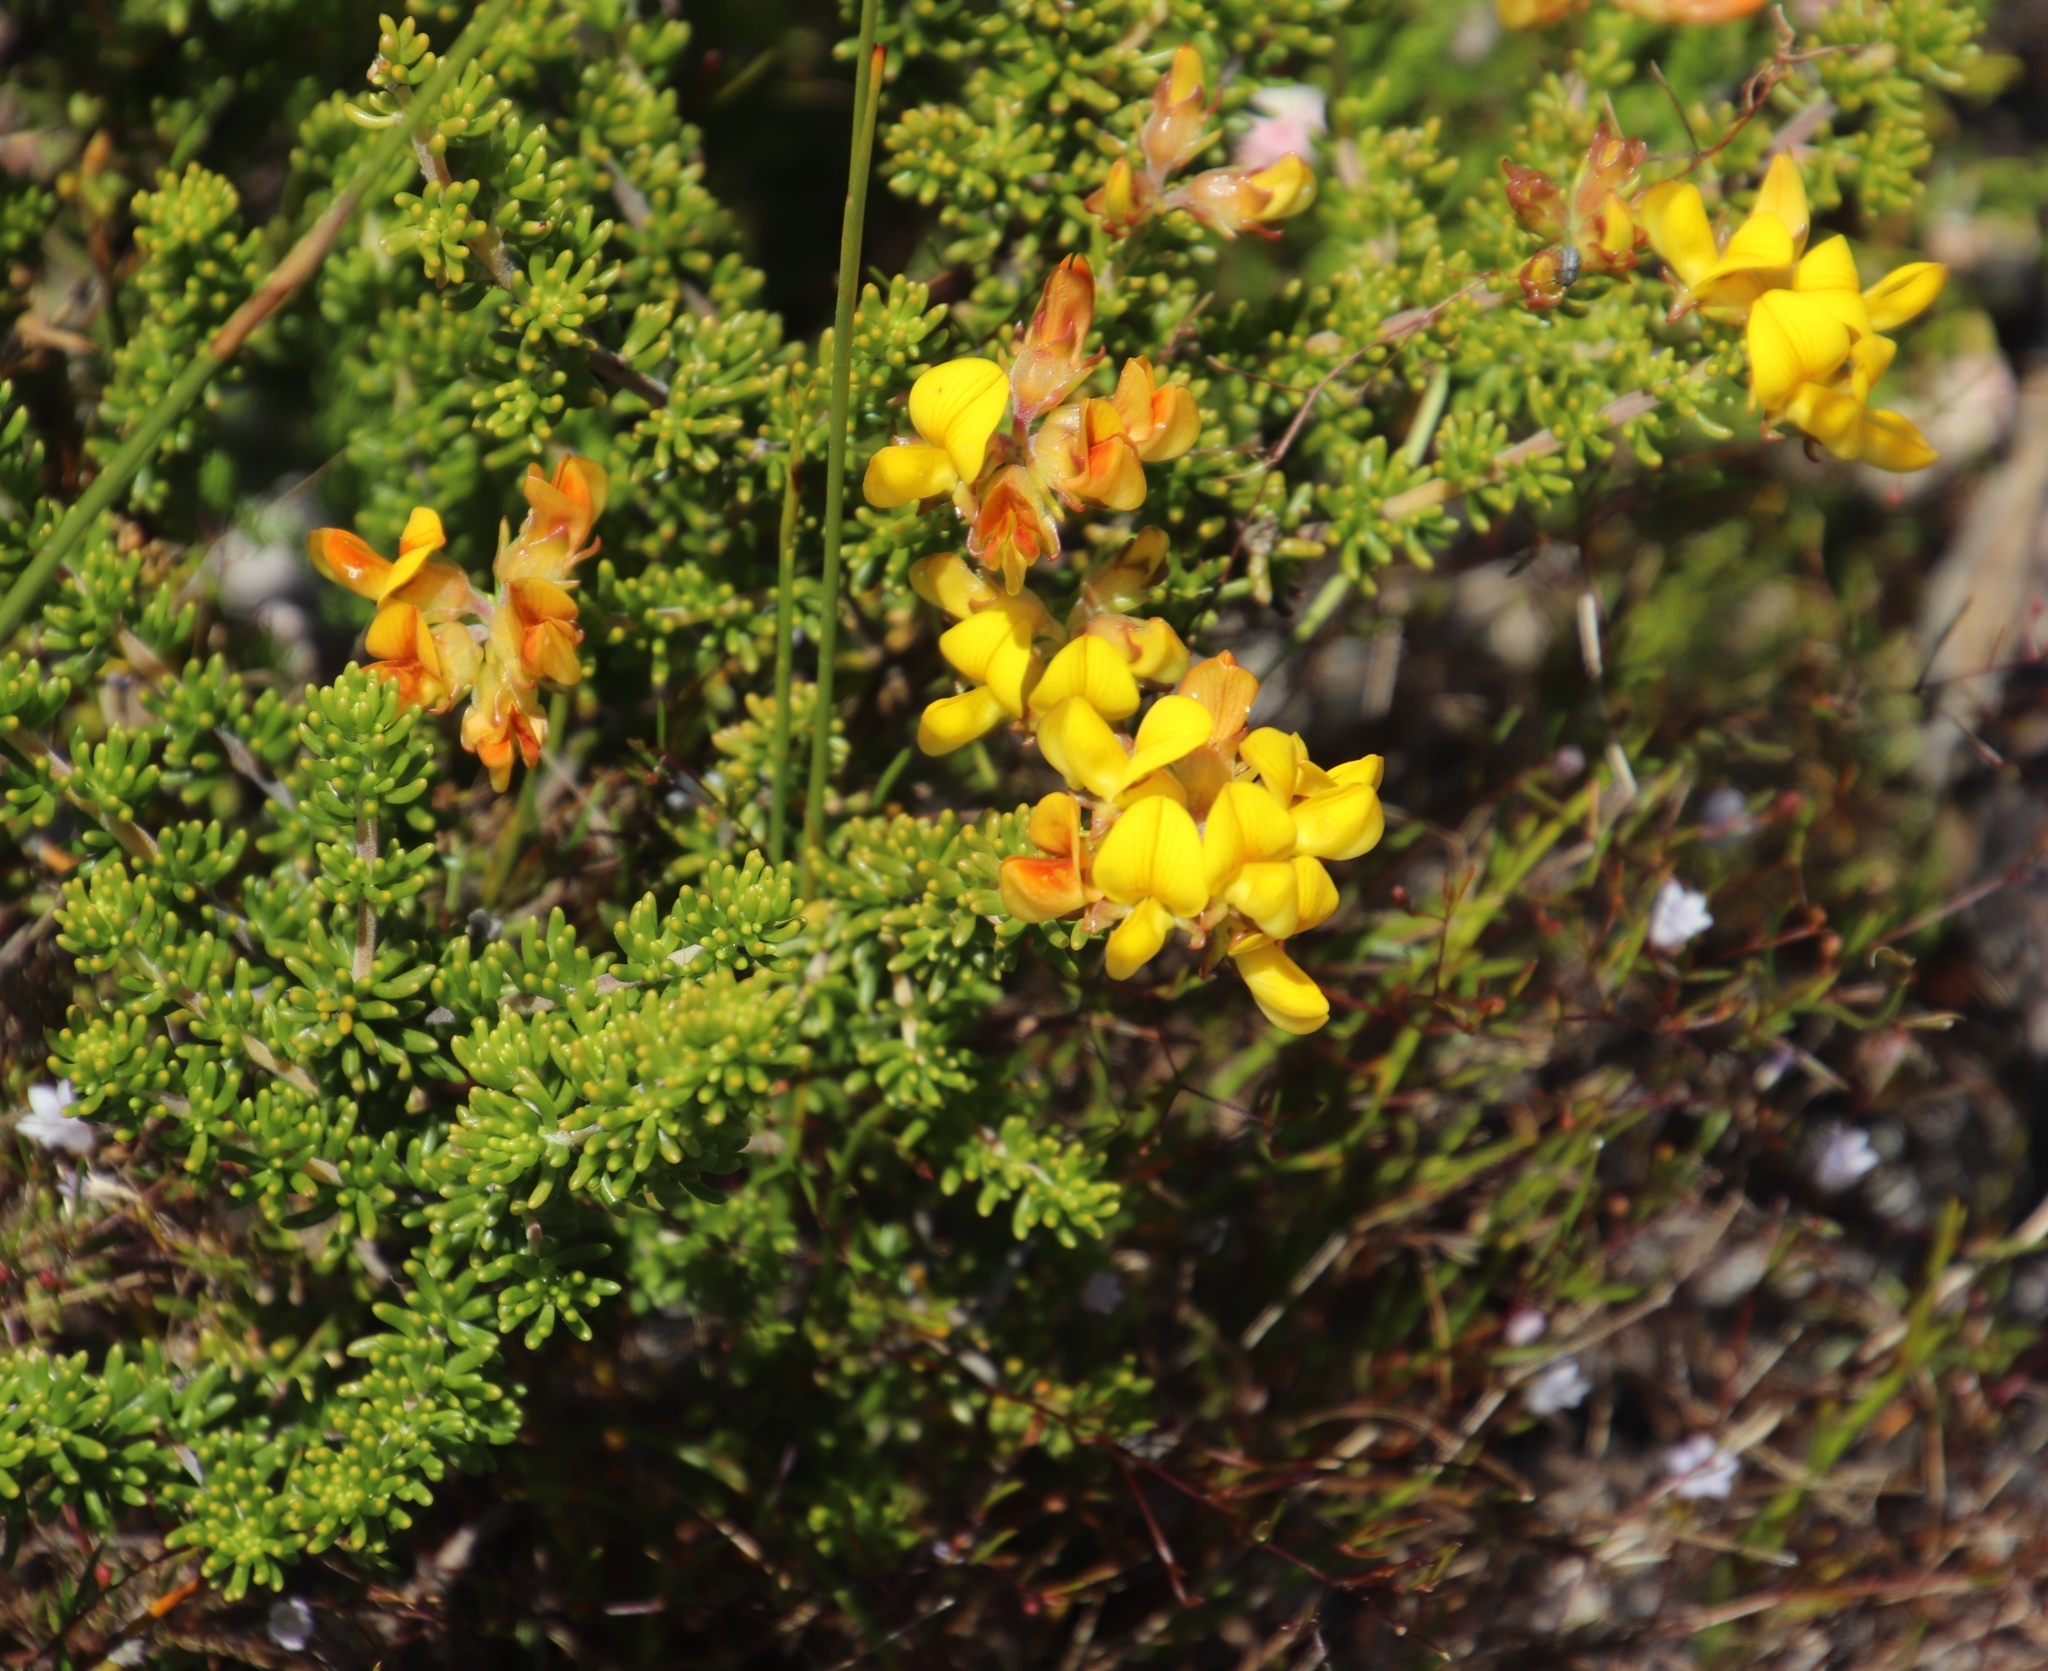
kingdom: Plantae
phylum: Tracheophyta
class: Magnoliopsida
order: Fabales
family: Fabaceae
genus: Aspalathus
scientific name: Aspalathus carnosa
